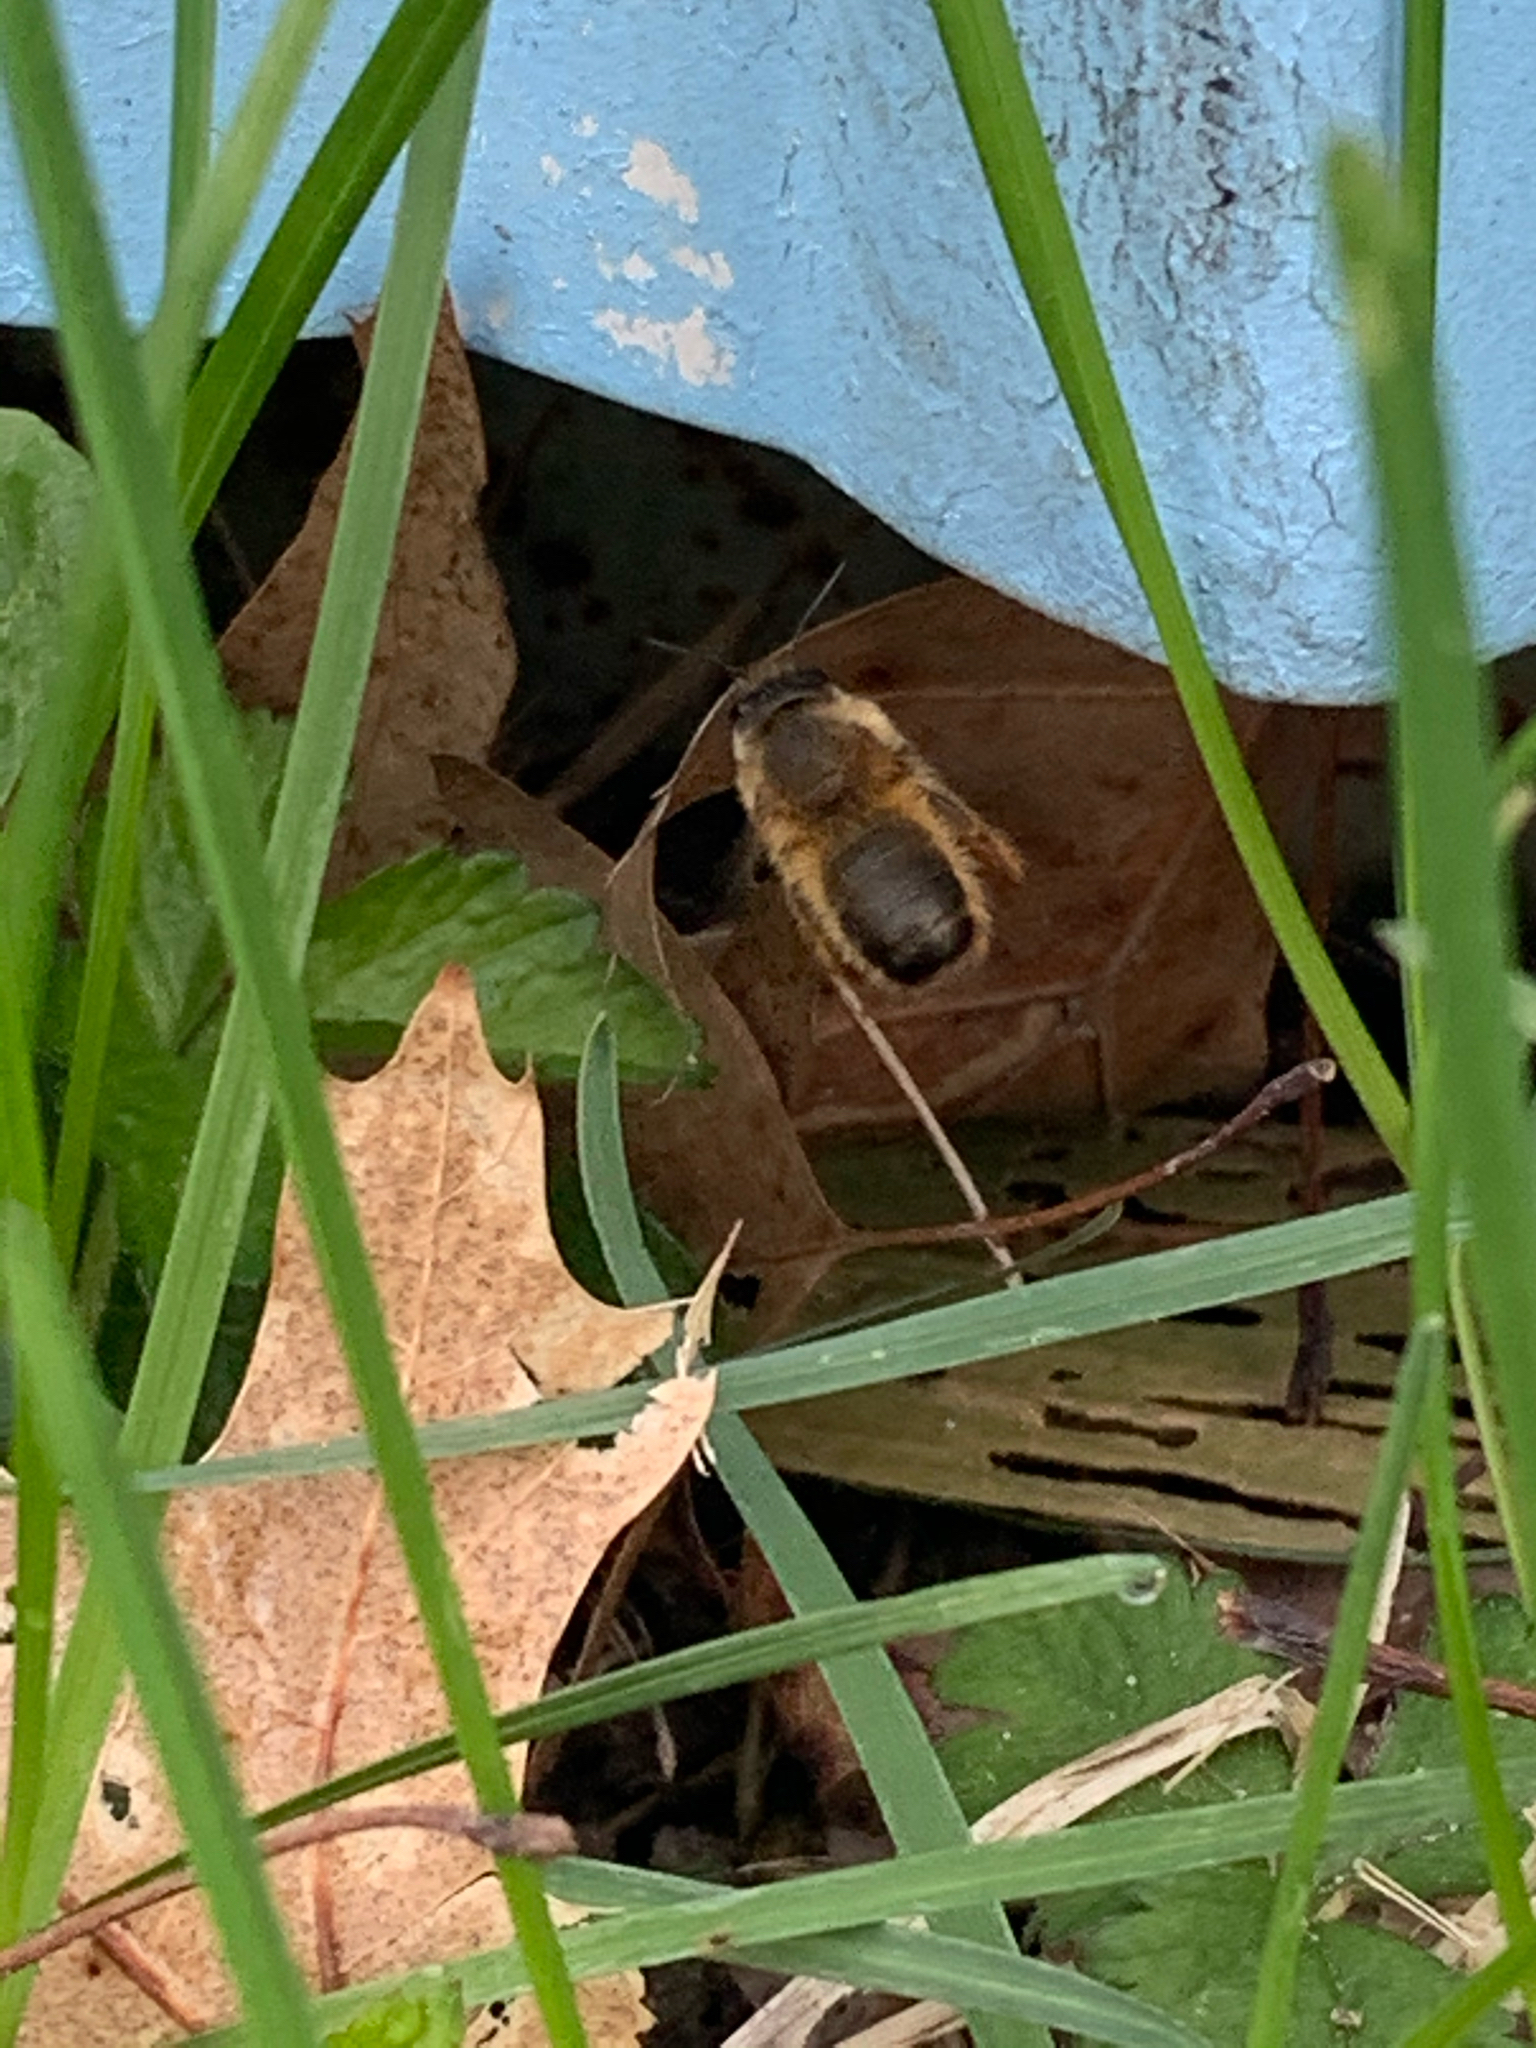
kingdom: Animalia
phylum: Arthropoda
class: Insecta
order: Hymenoptera
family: Megachilidae
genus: Osmia
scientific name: Osmia taurus
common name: Taurus mason bee
